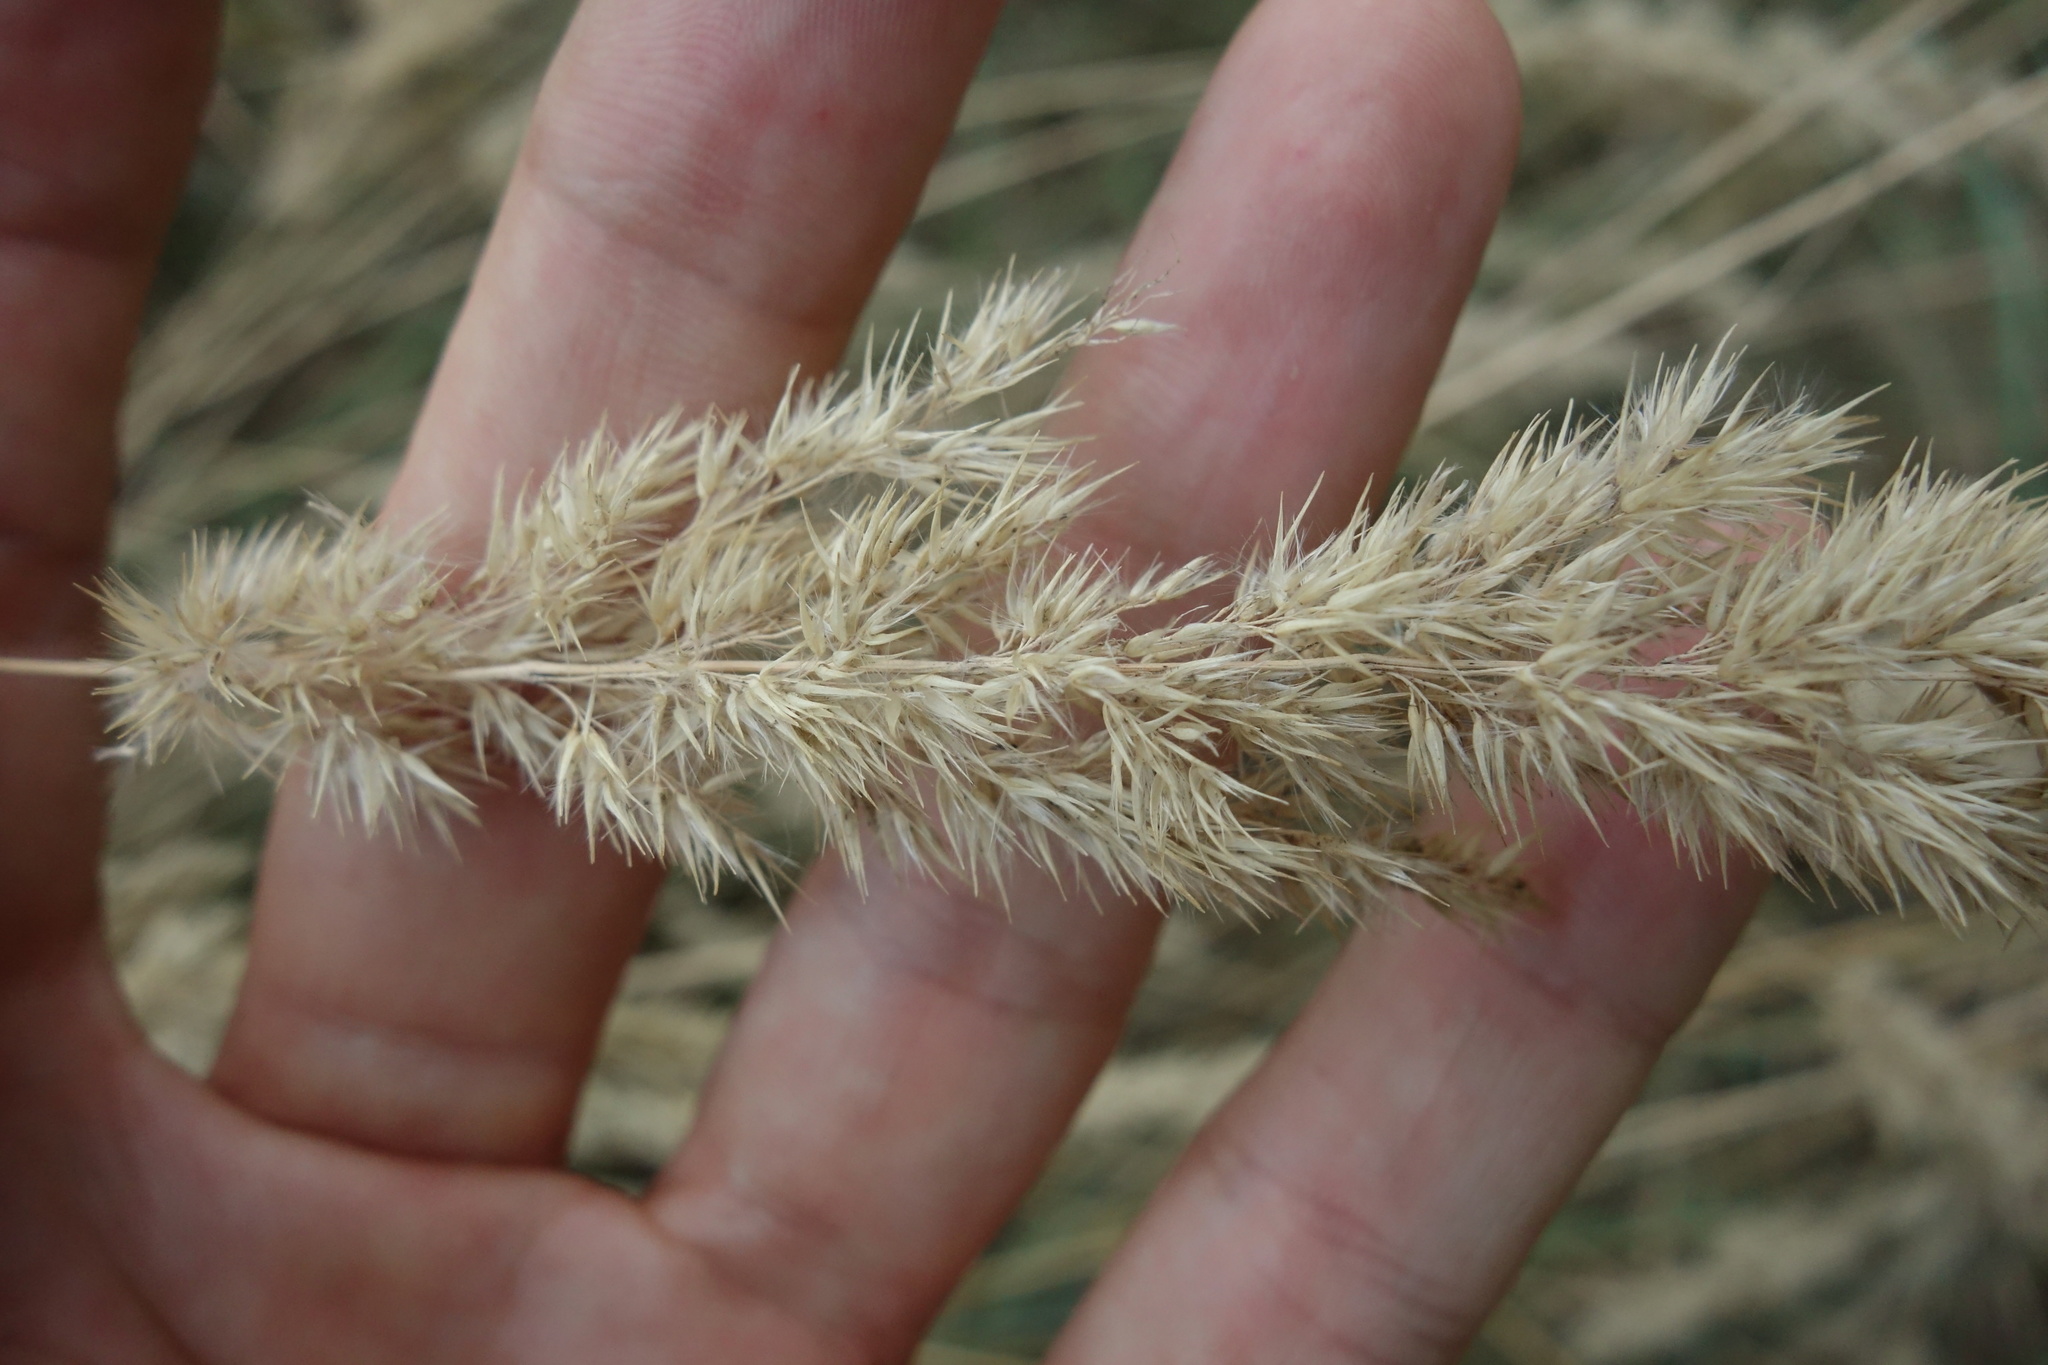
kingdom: Plantae
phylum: Tracheophyta
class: Liliopsida
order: Poales
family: Poaceae
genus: Calamagrostis
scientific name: Calamagrostis epigejos
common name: Wood small-reed
